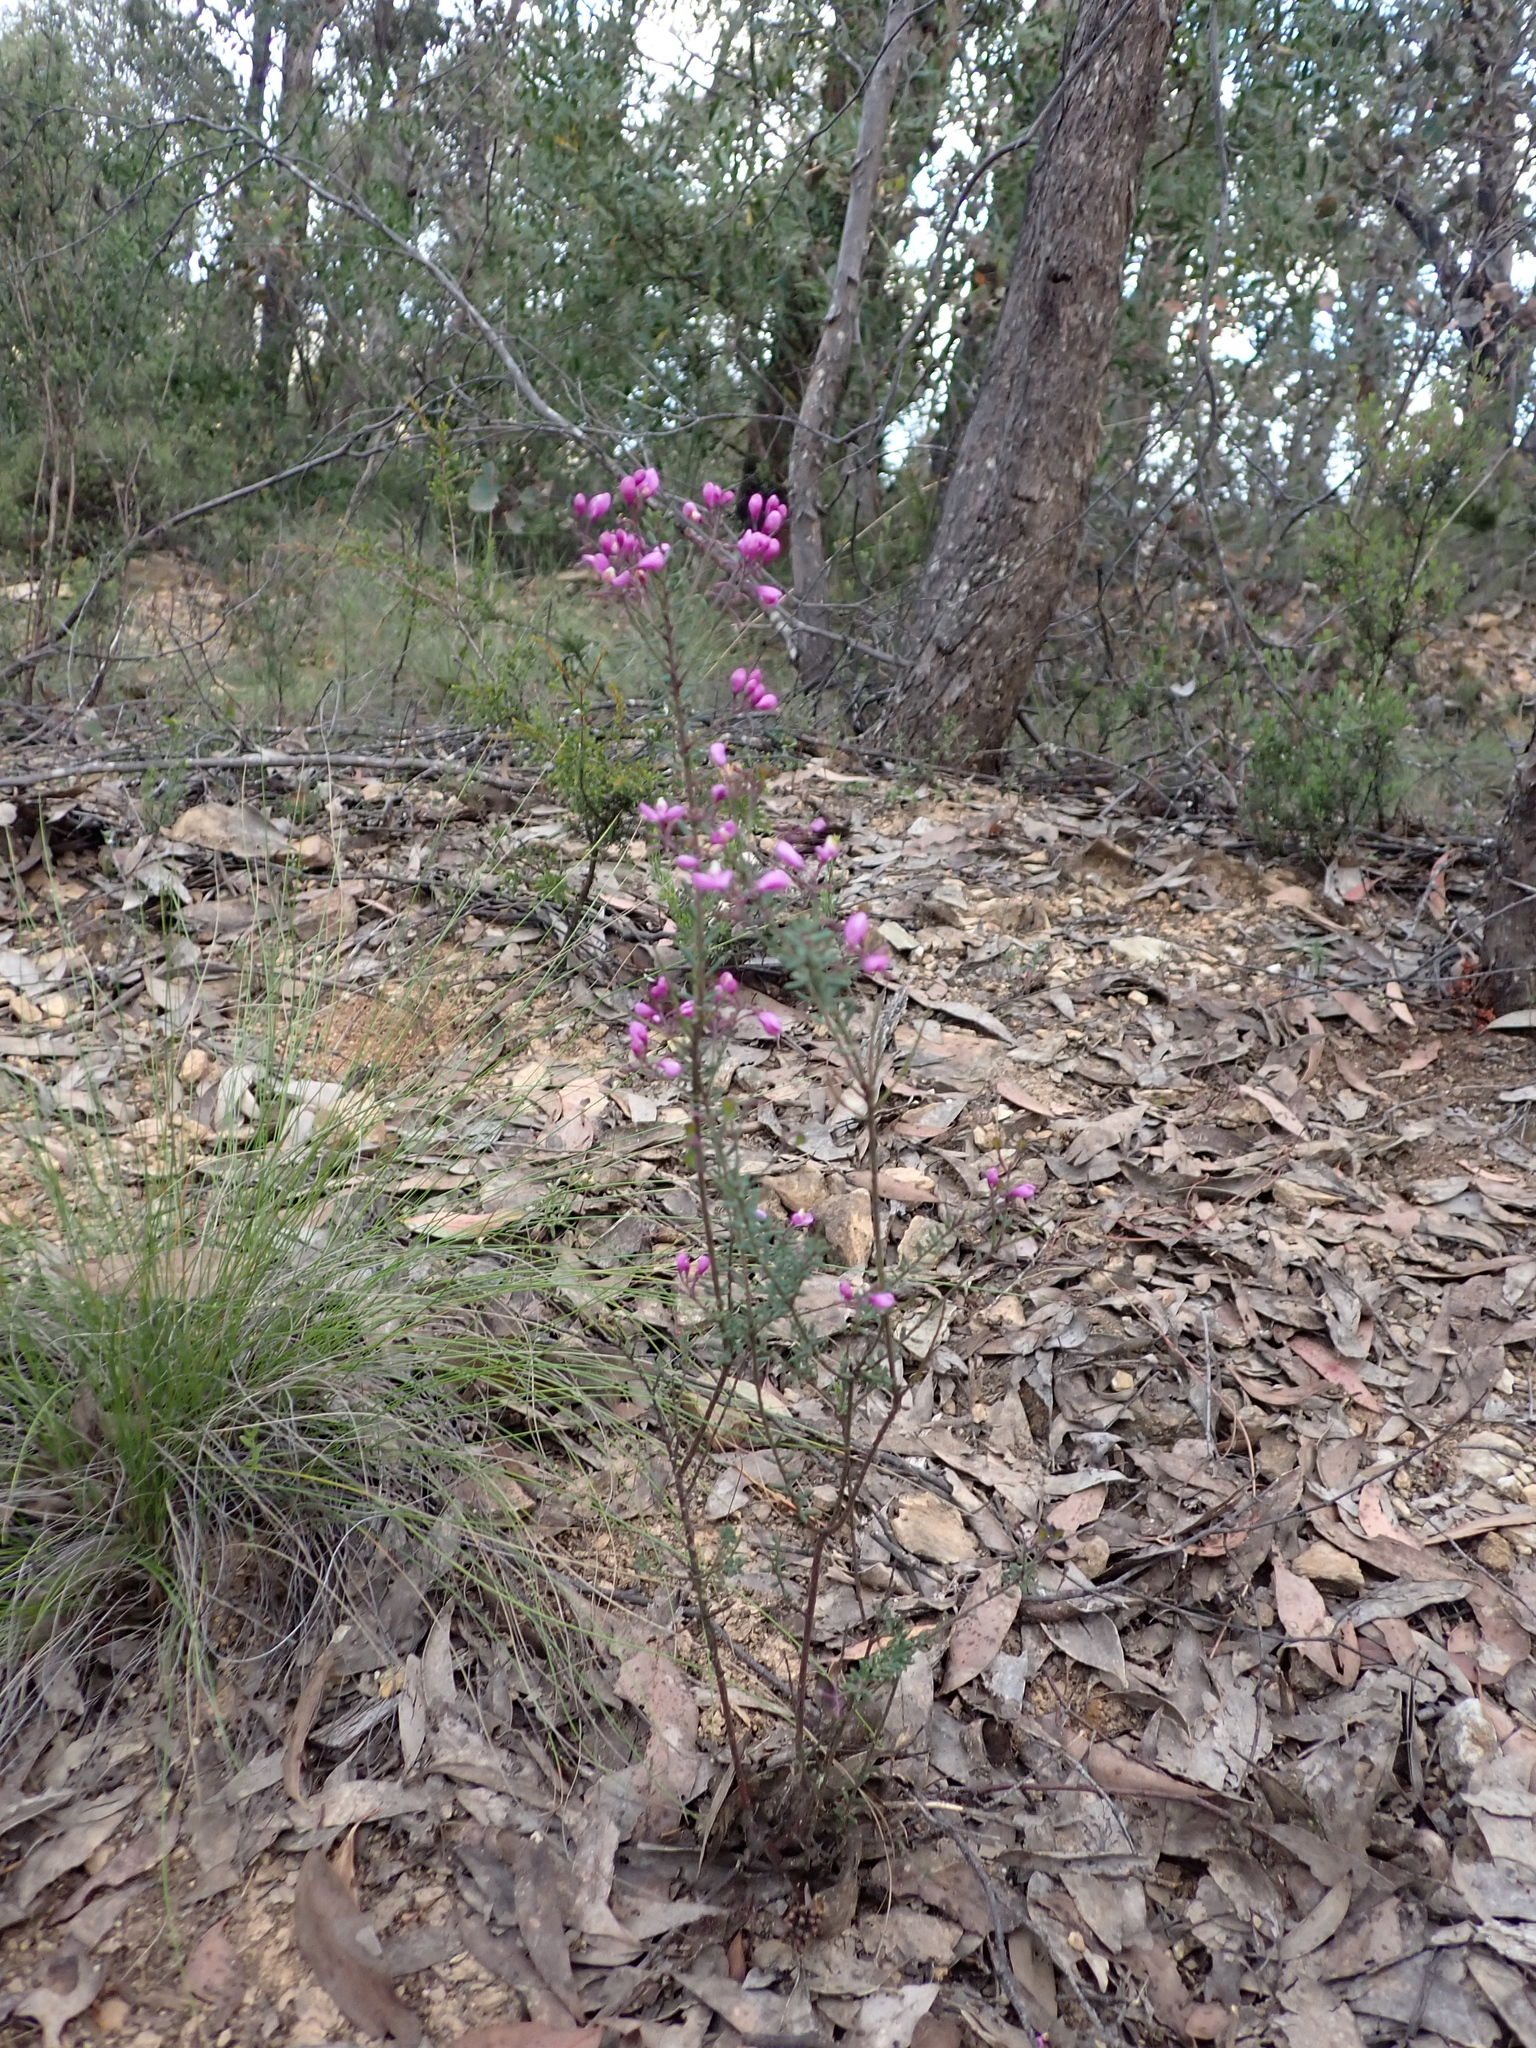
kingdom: Plantae
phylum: Tracheophyta
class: Magnoliopsida
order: Fabales
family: Polygalaceae
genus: Comesperma
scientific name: Comesperma ericinum
